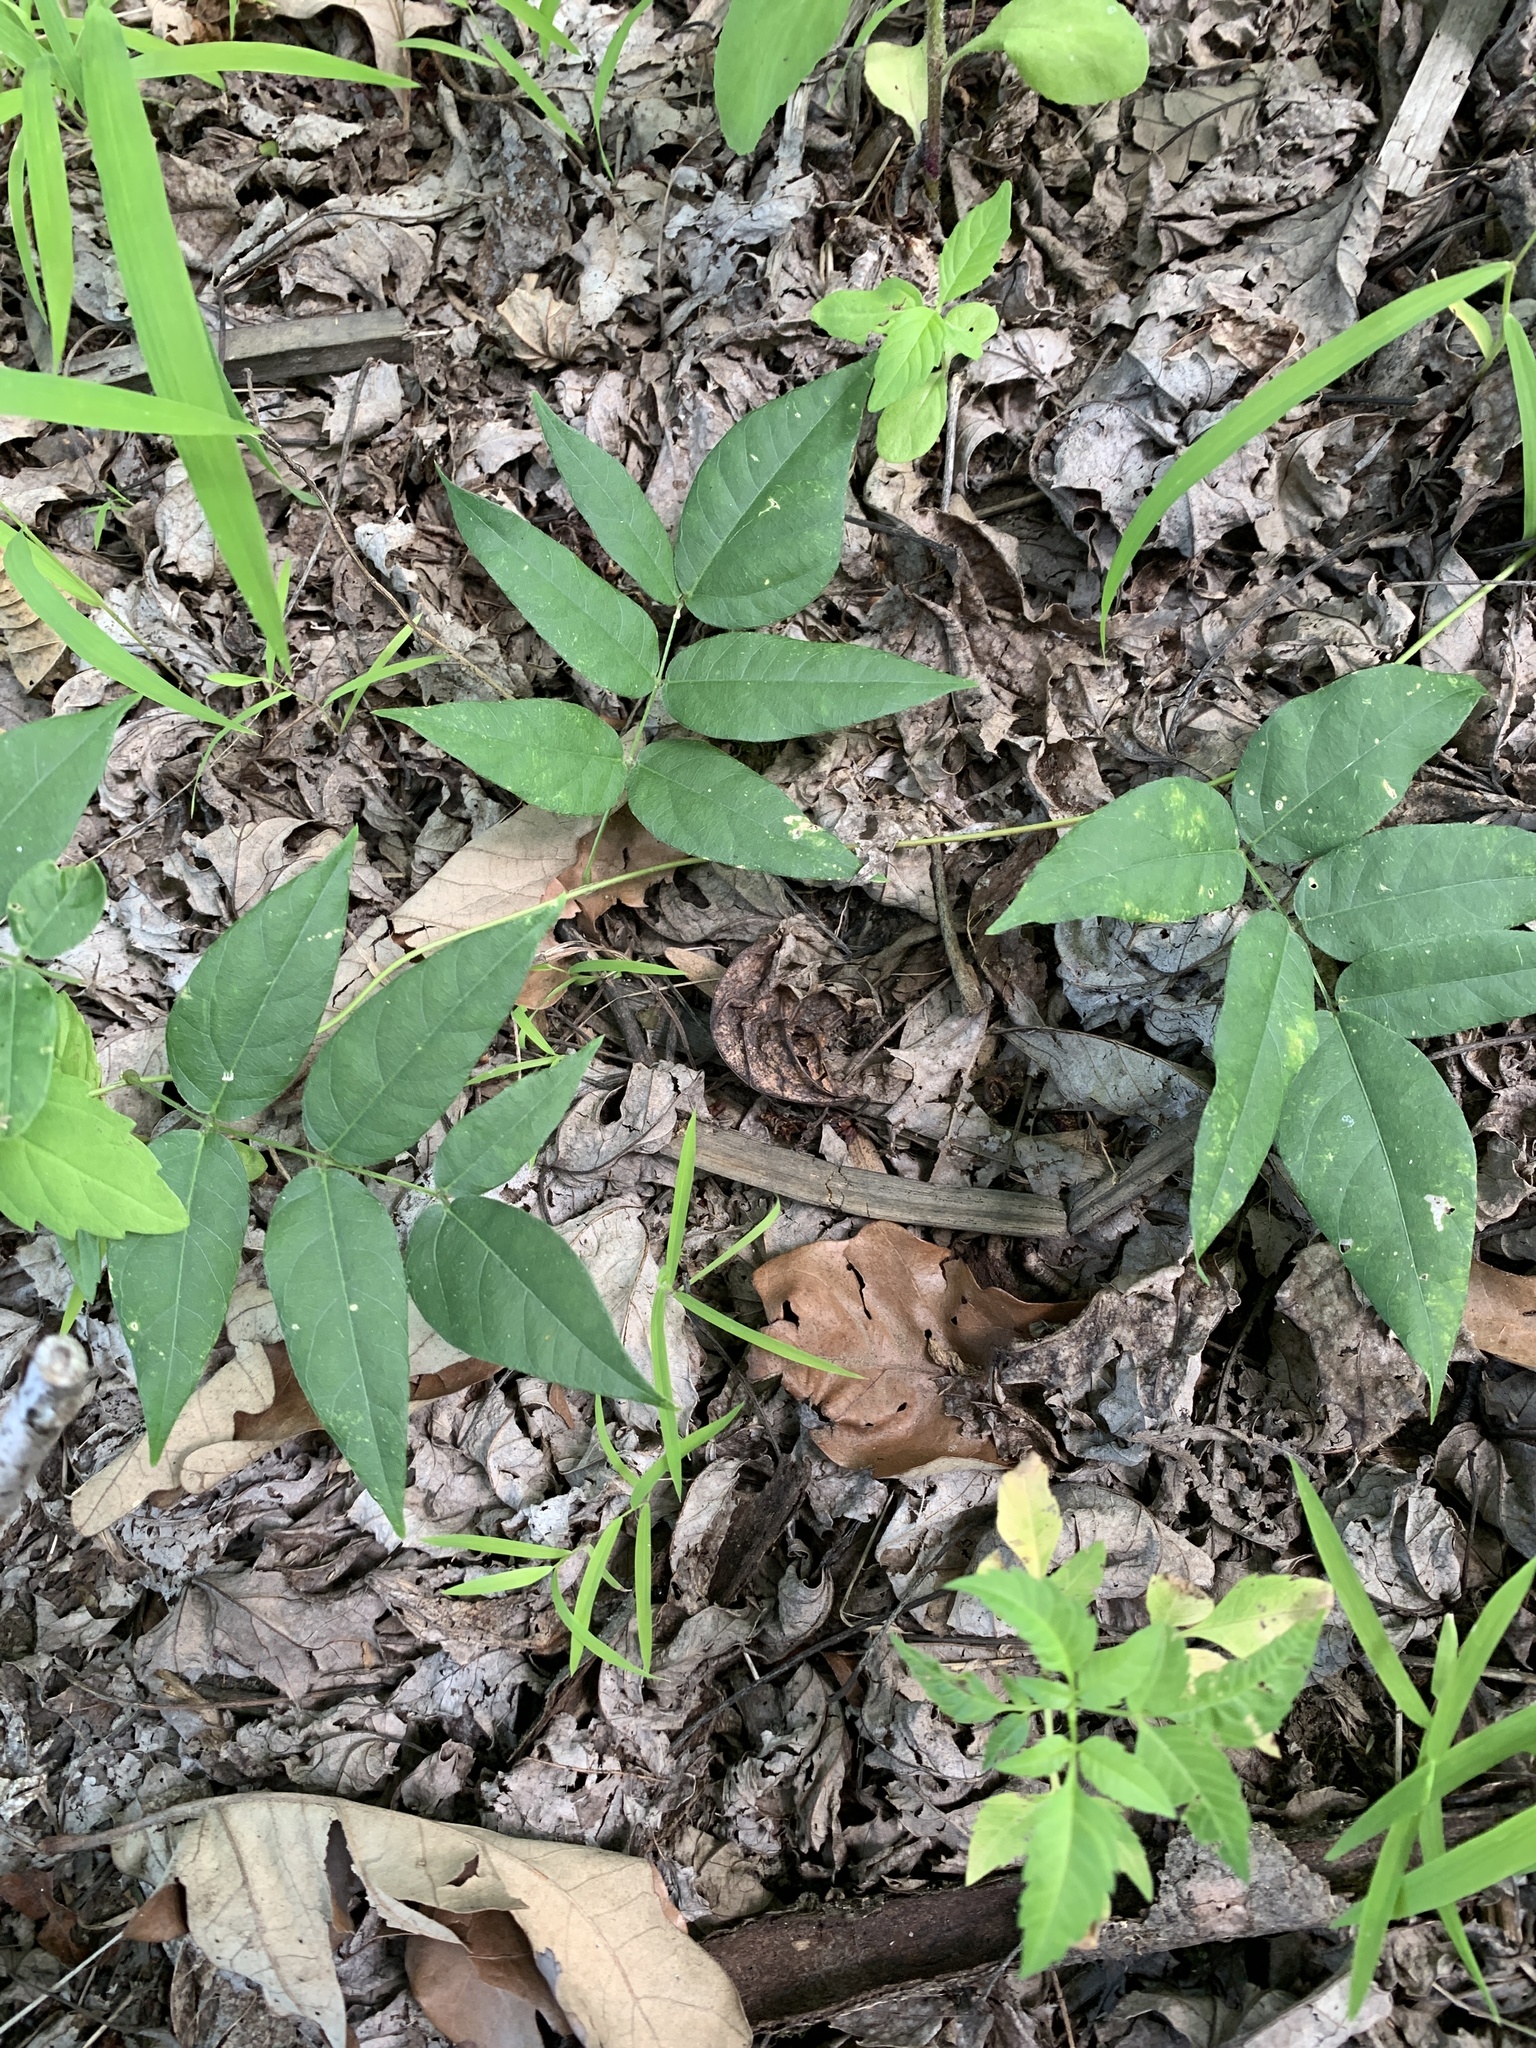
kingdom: Plantae
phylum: Tracheophyta
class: Magnoliopsida
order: Fabales
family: Fabaceae
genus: Apios
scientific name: Apios americana
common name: American potato-bean
